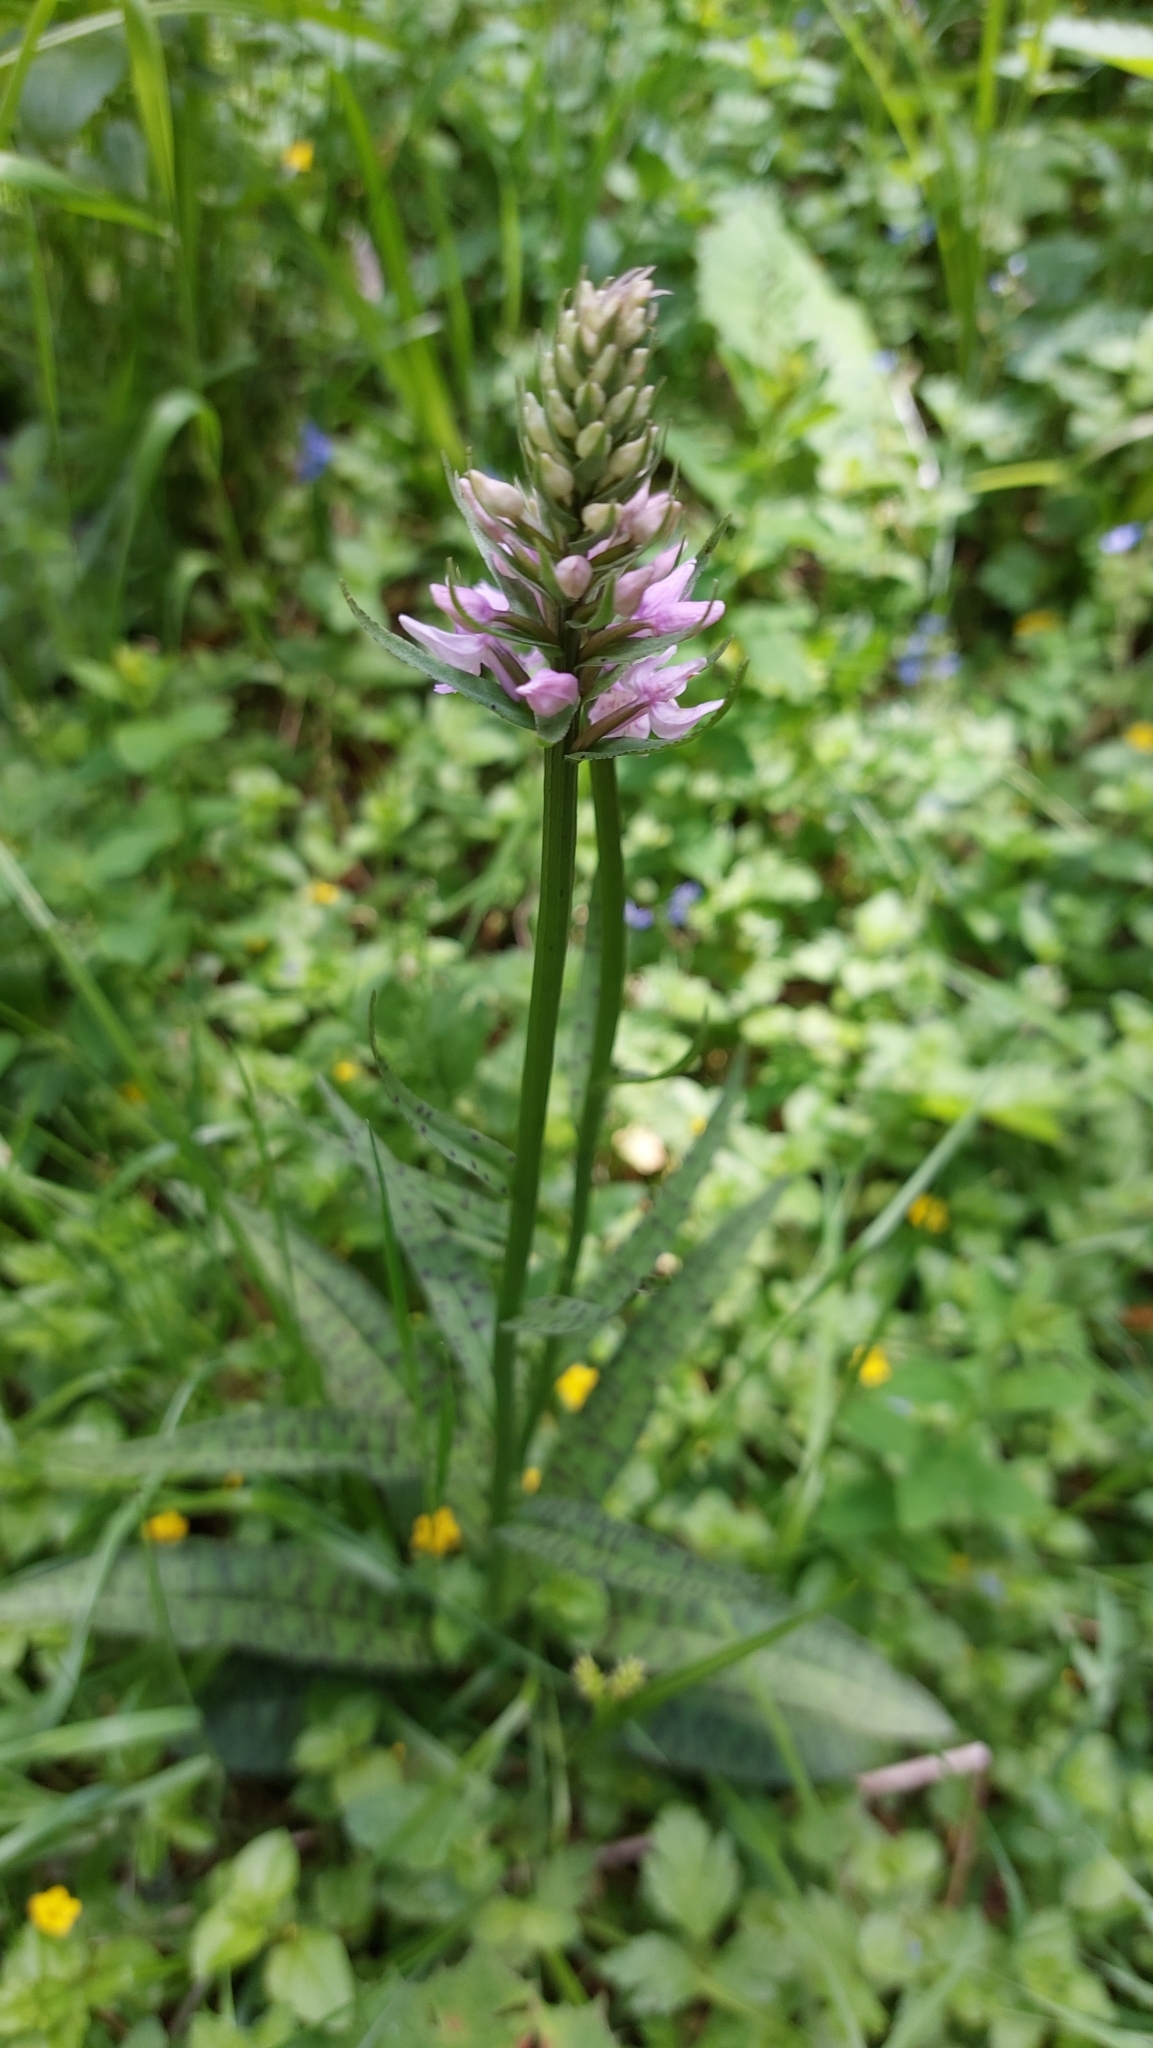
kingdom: Plantae
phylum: Tracheophyta
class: Liliopsida
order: Asparagales
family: Orchidaceae
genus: Dactylorhiza
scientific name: Dactylorhiza maculata
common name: Heath spotted-orchid
